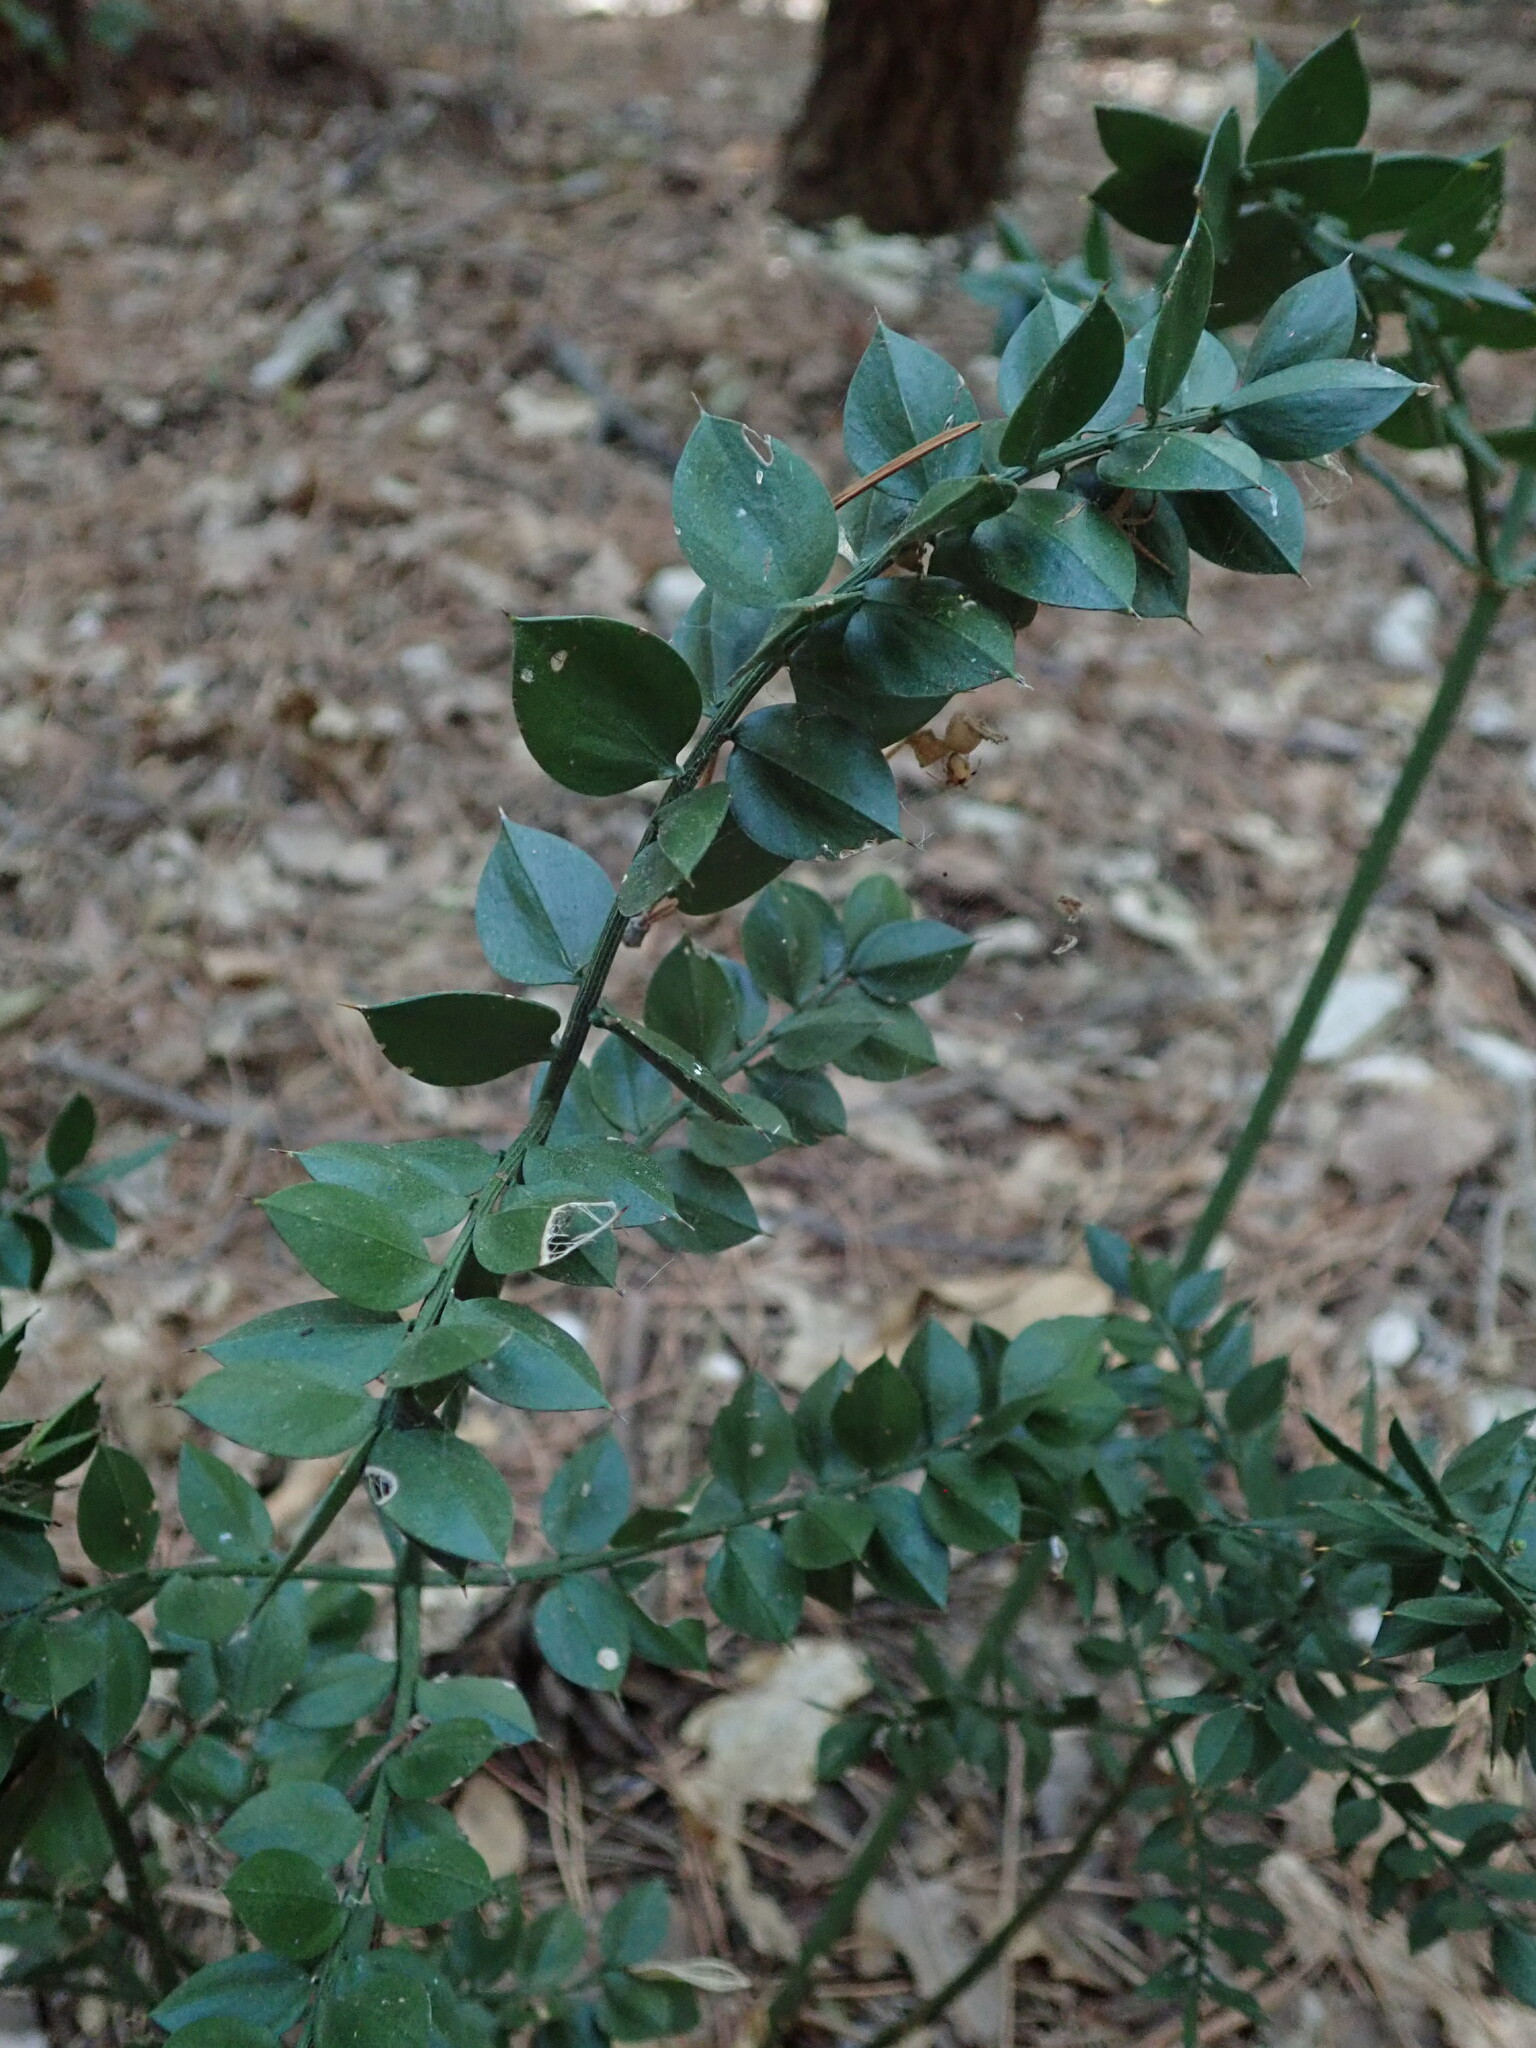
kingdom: Plantae
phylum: Tracheophyta
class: Liliopsida
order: Asparagales
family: Asparagaceae
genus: Ruscus
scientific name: Ruscus aculeatus
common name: Butcher's-broom
